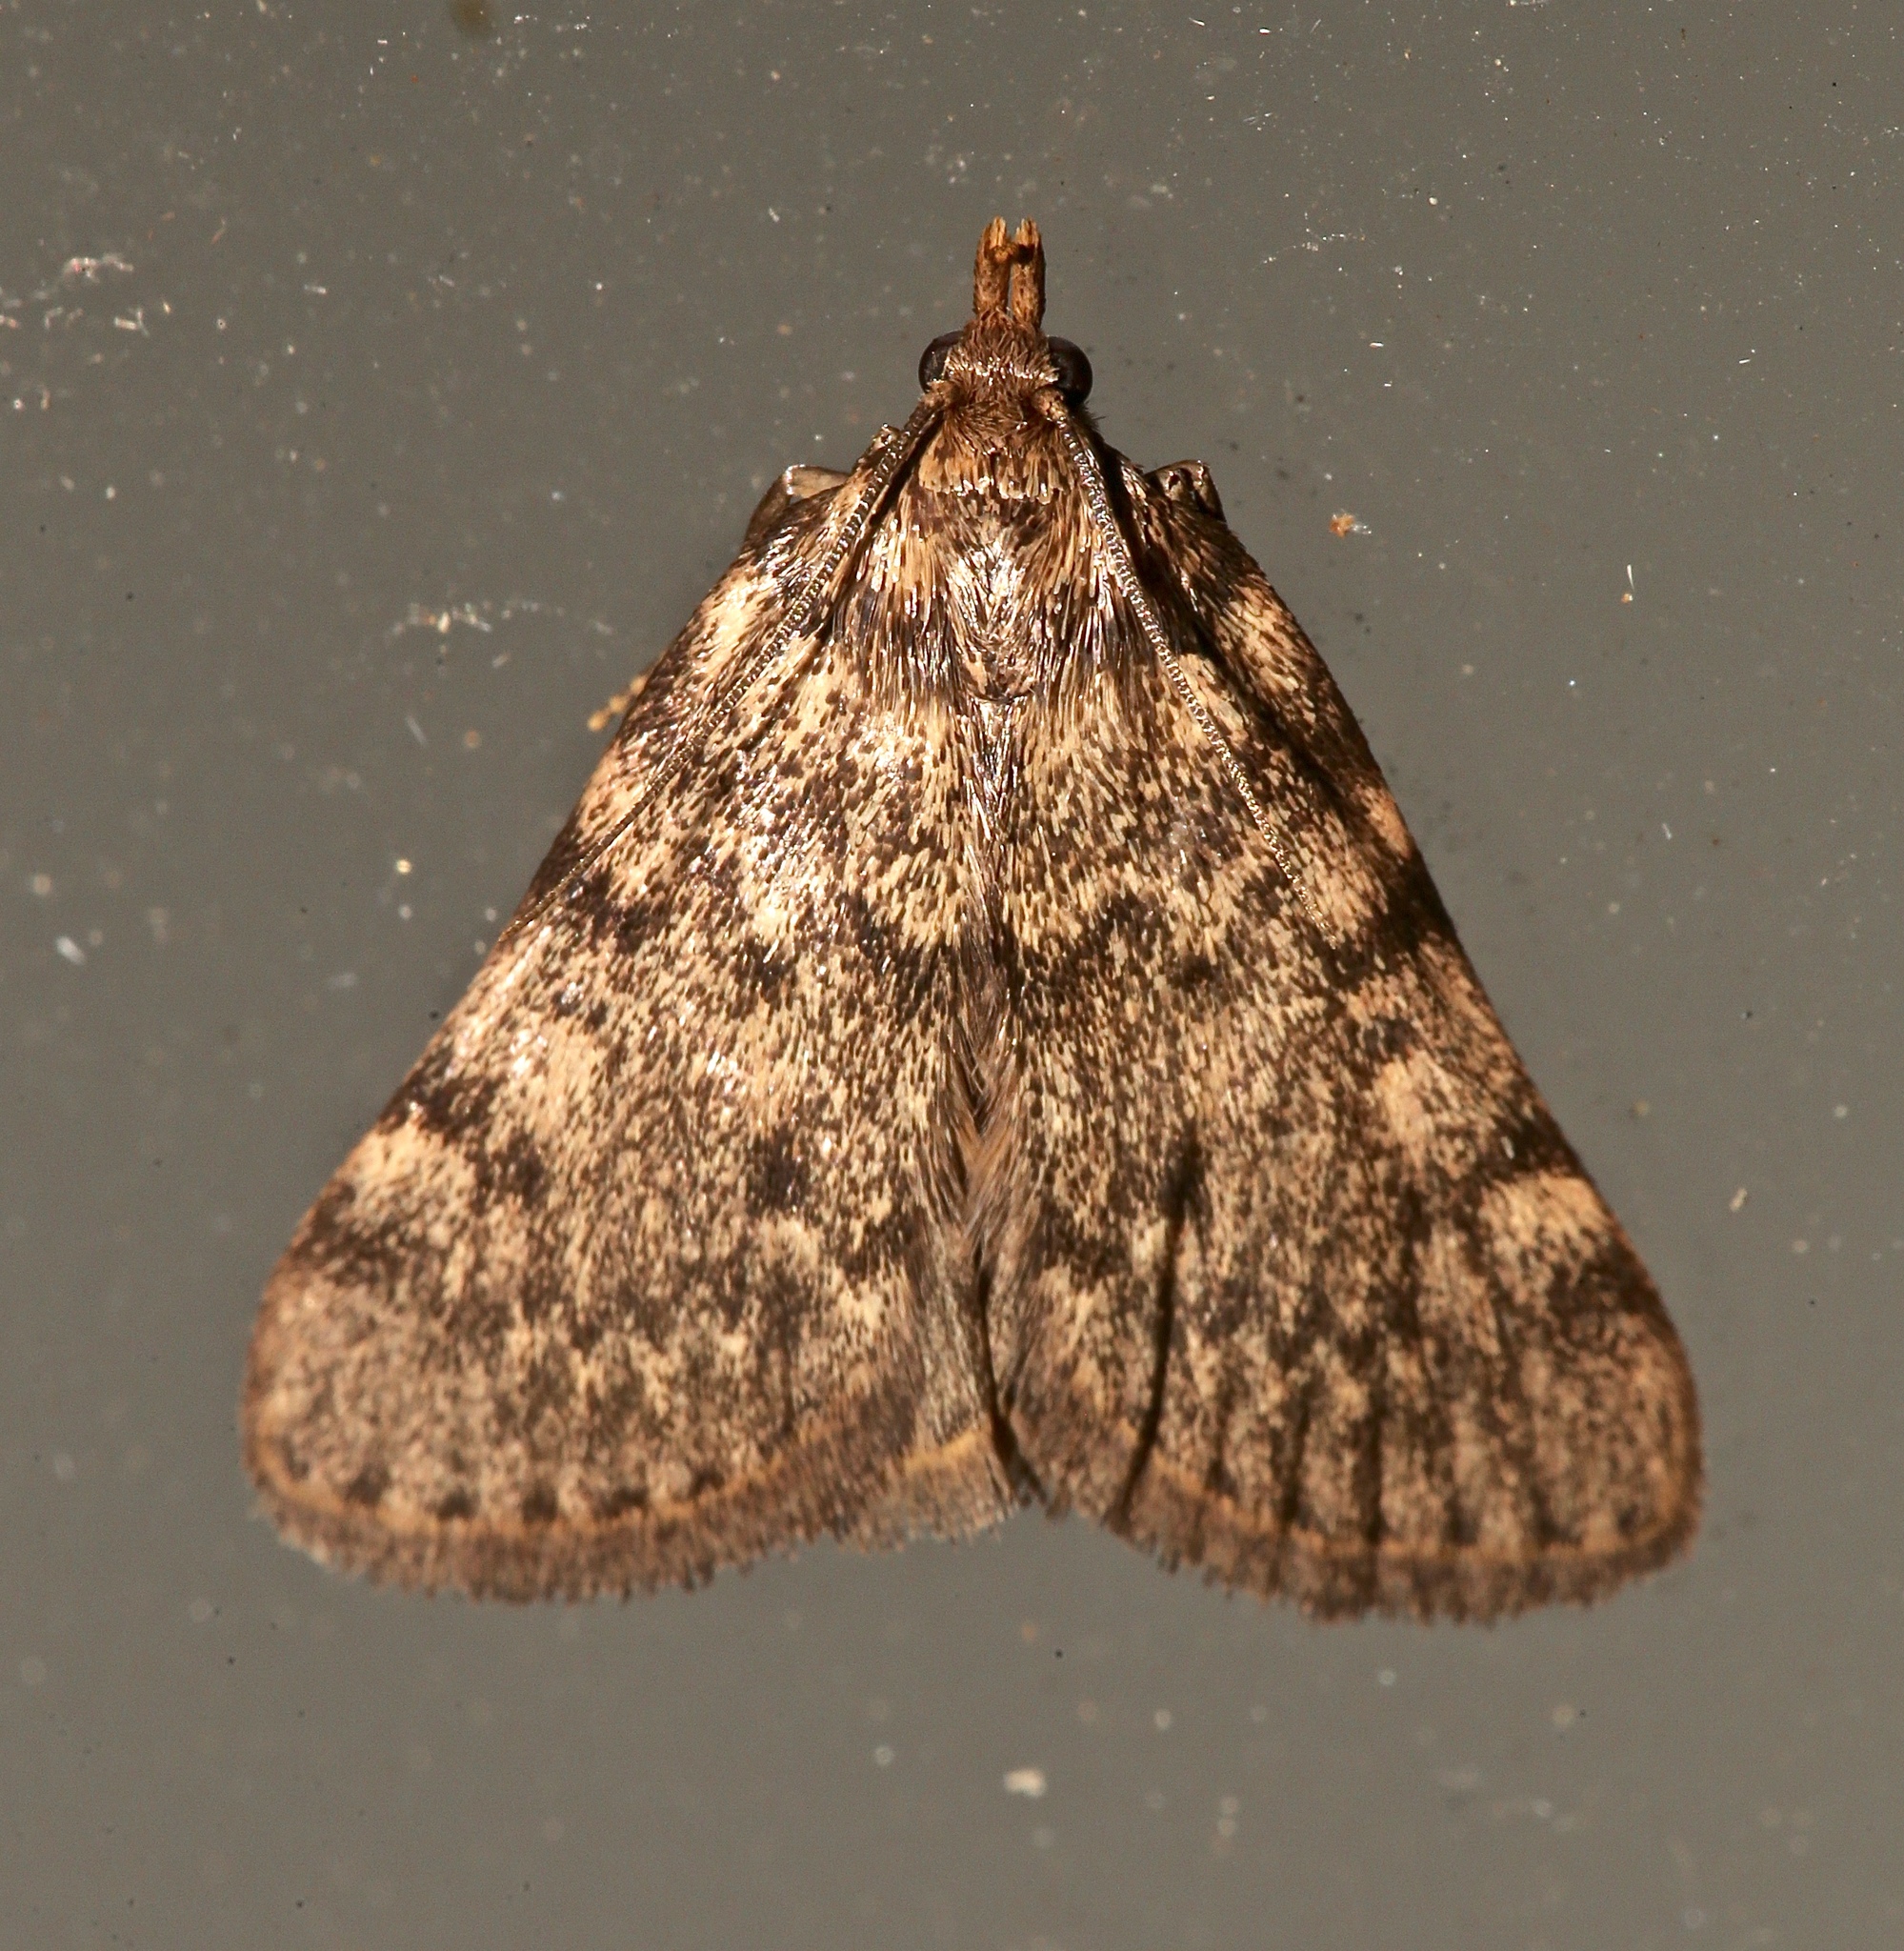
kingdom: Animalia
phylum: Arthropoda
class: Insecta
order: Lepidoptera
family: Pyralidae
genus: Aglossa
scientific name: Aglossa pinguinalis
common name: Large tabby
